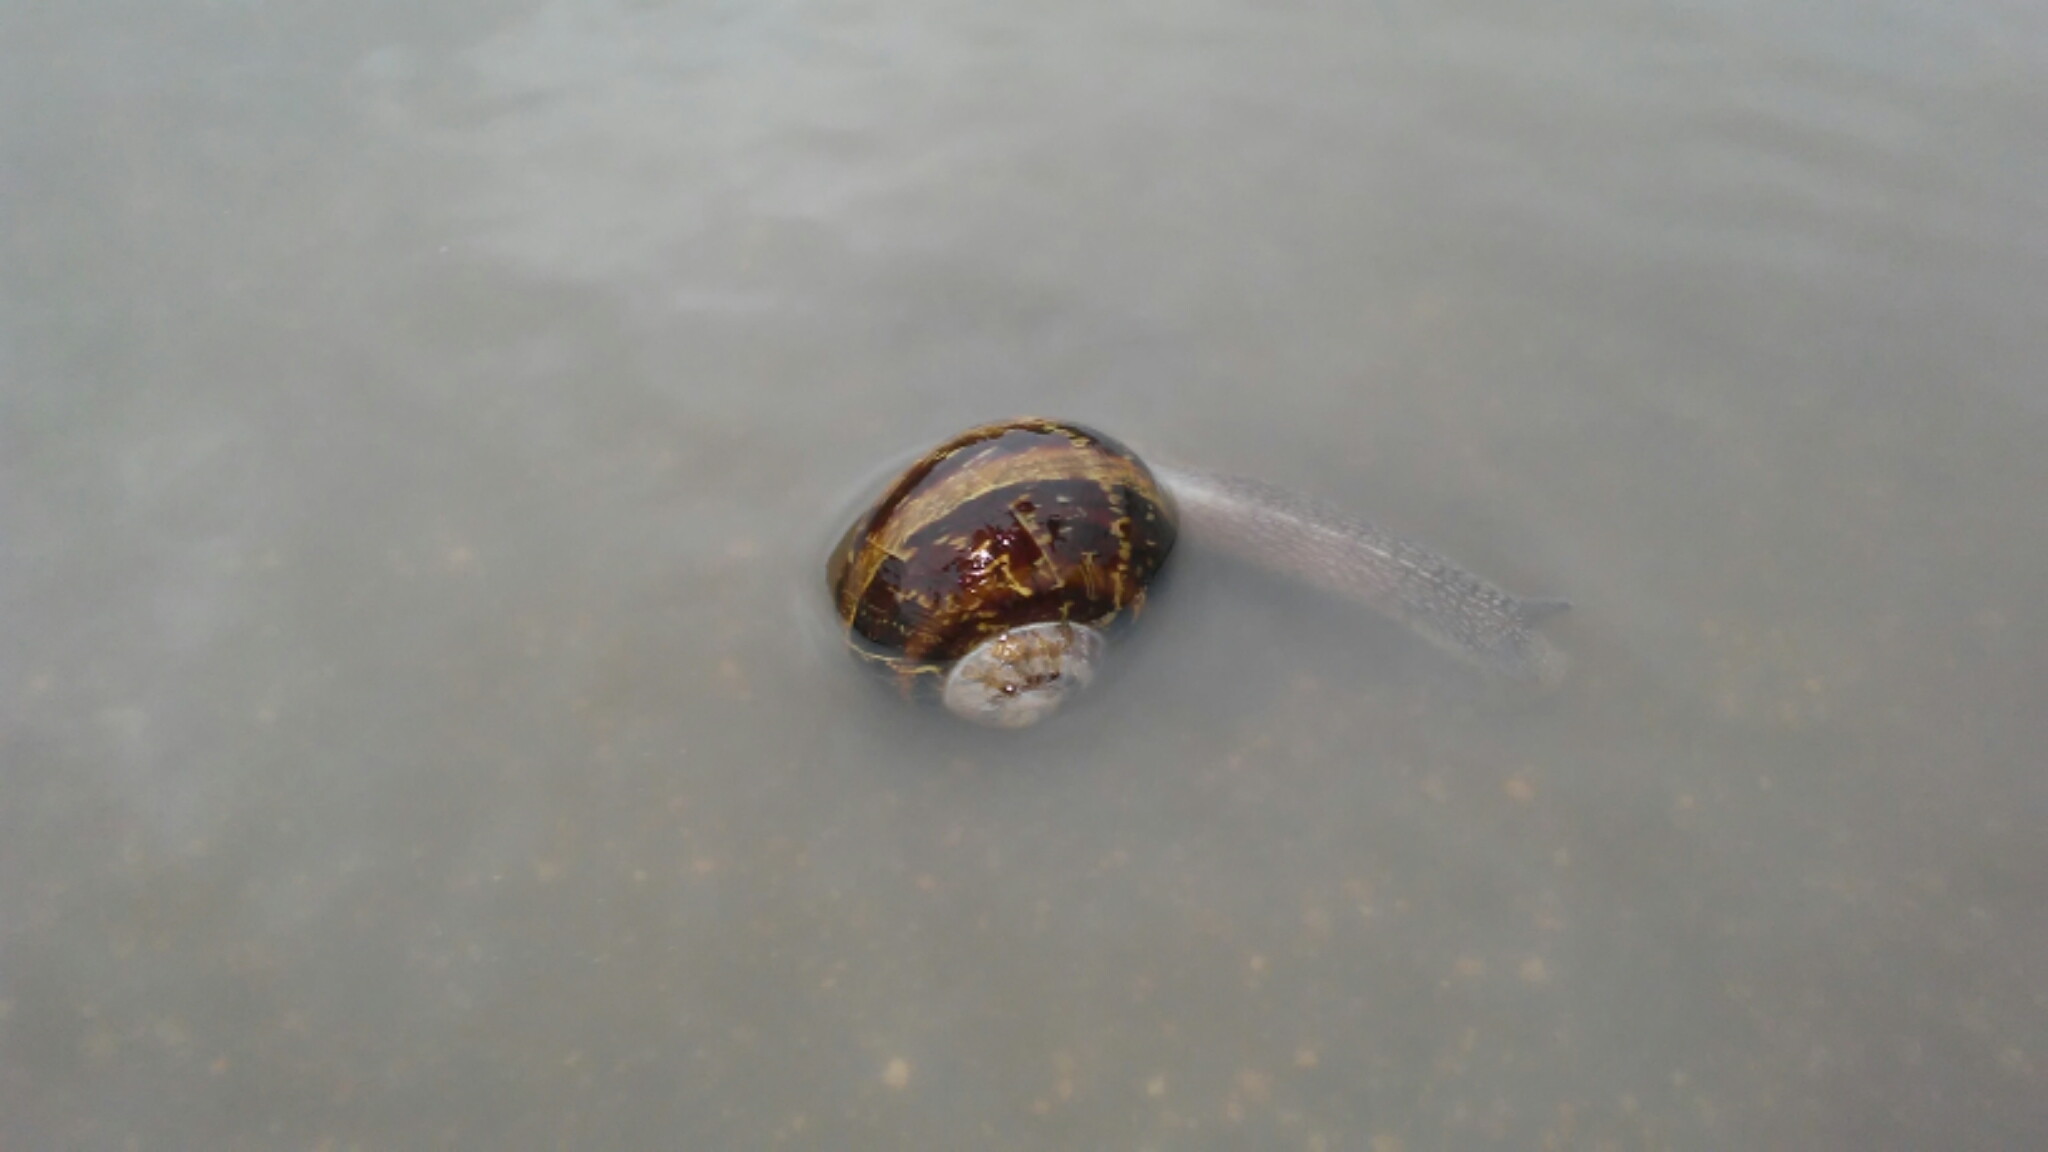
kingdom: Animalia
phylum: Mollusca
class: Gastropoda
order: Stylommatophora
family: Helicidae
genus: Cornu
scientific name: Cornu aspersum
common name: Brown garden snail
